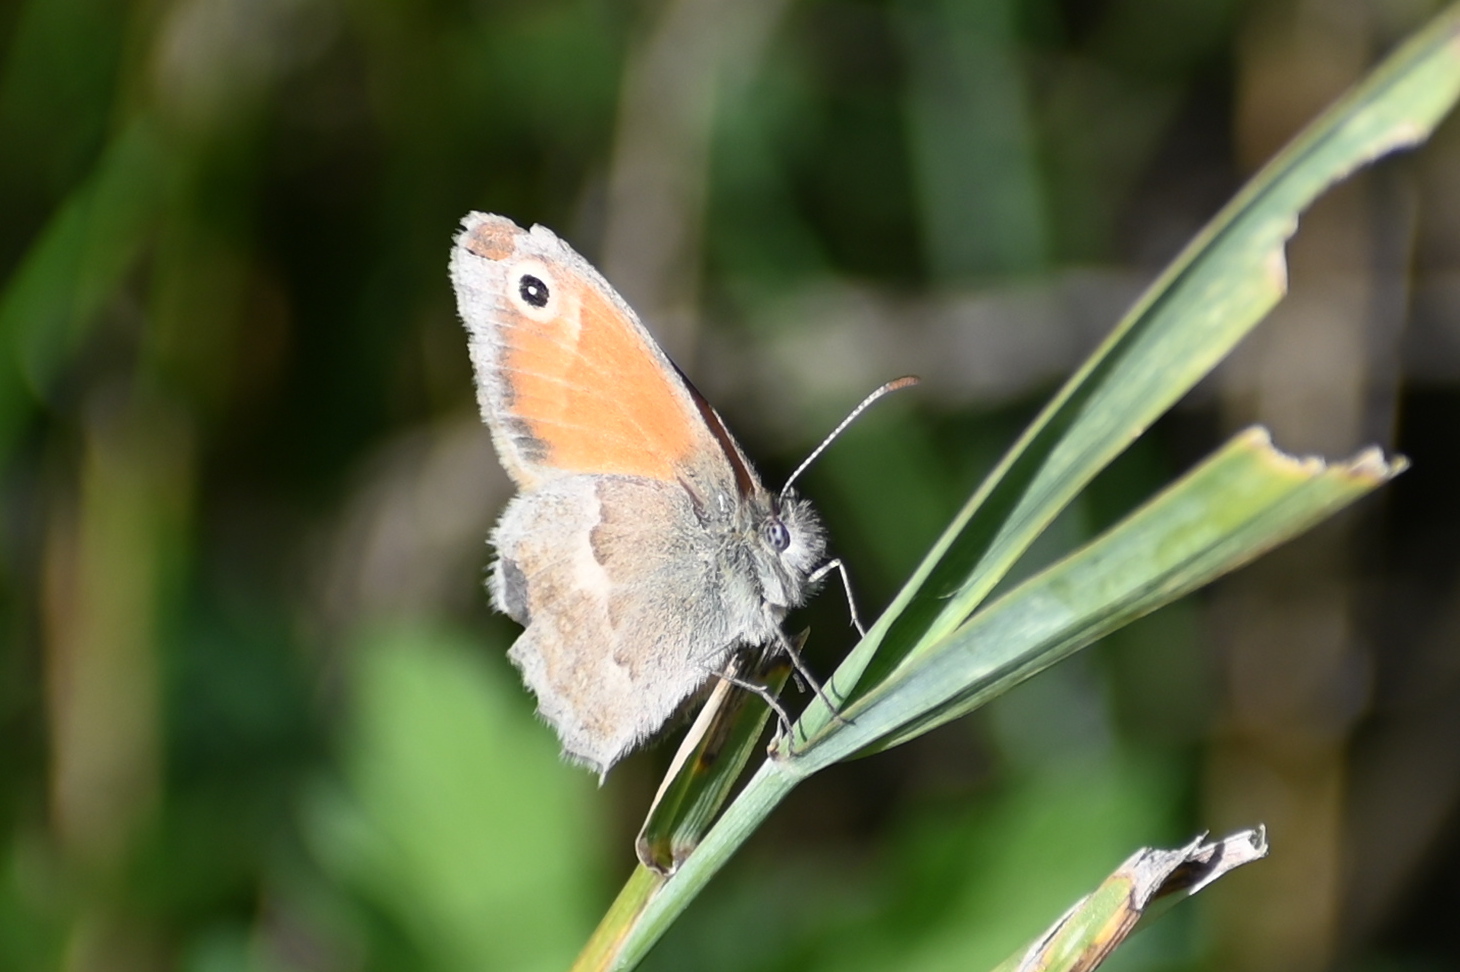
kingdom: Animalia
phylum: Arthropoda
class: Insecta
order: Lepidoptera
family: Nymphalidae
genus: Coenonympha
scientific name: Coenonympha pamphilus
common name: Small heath
